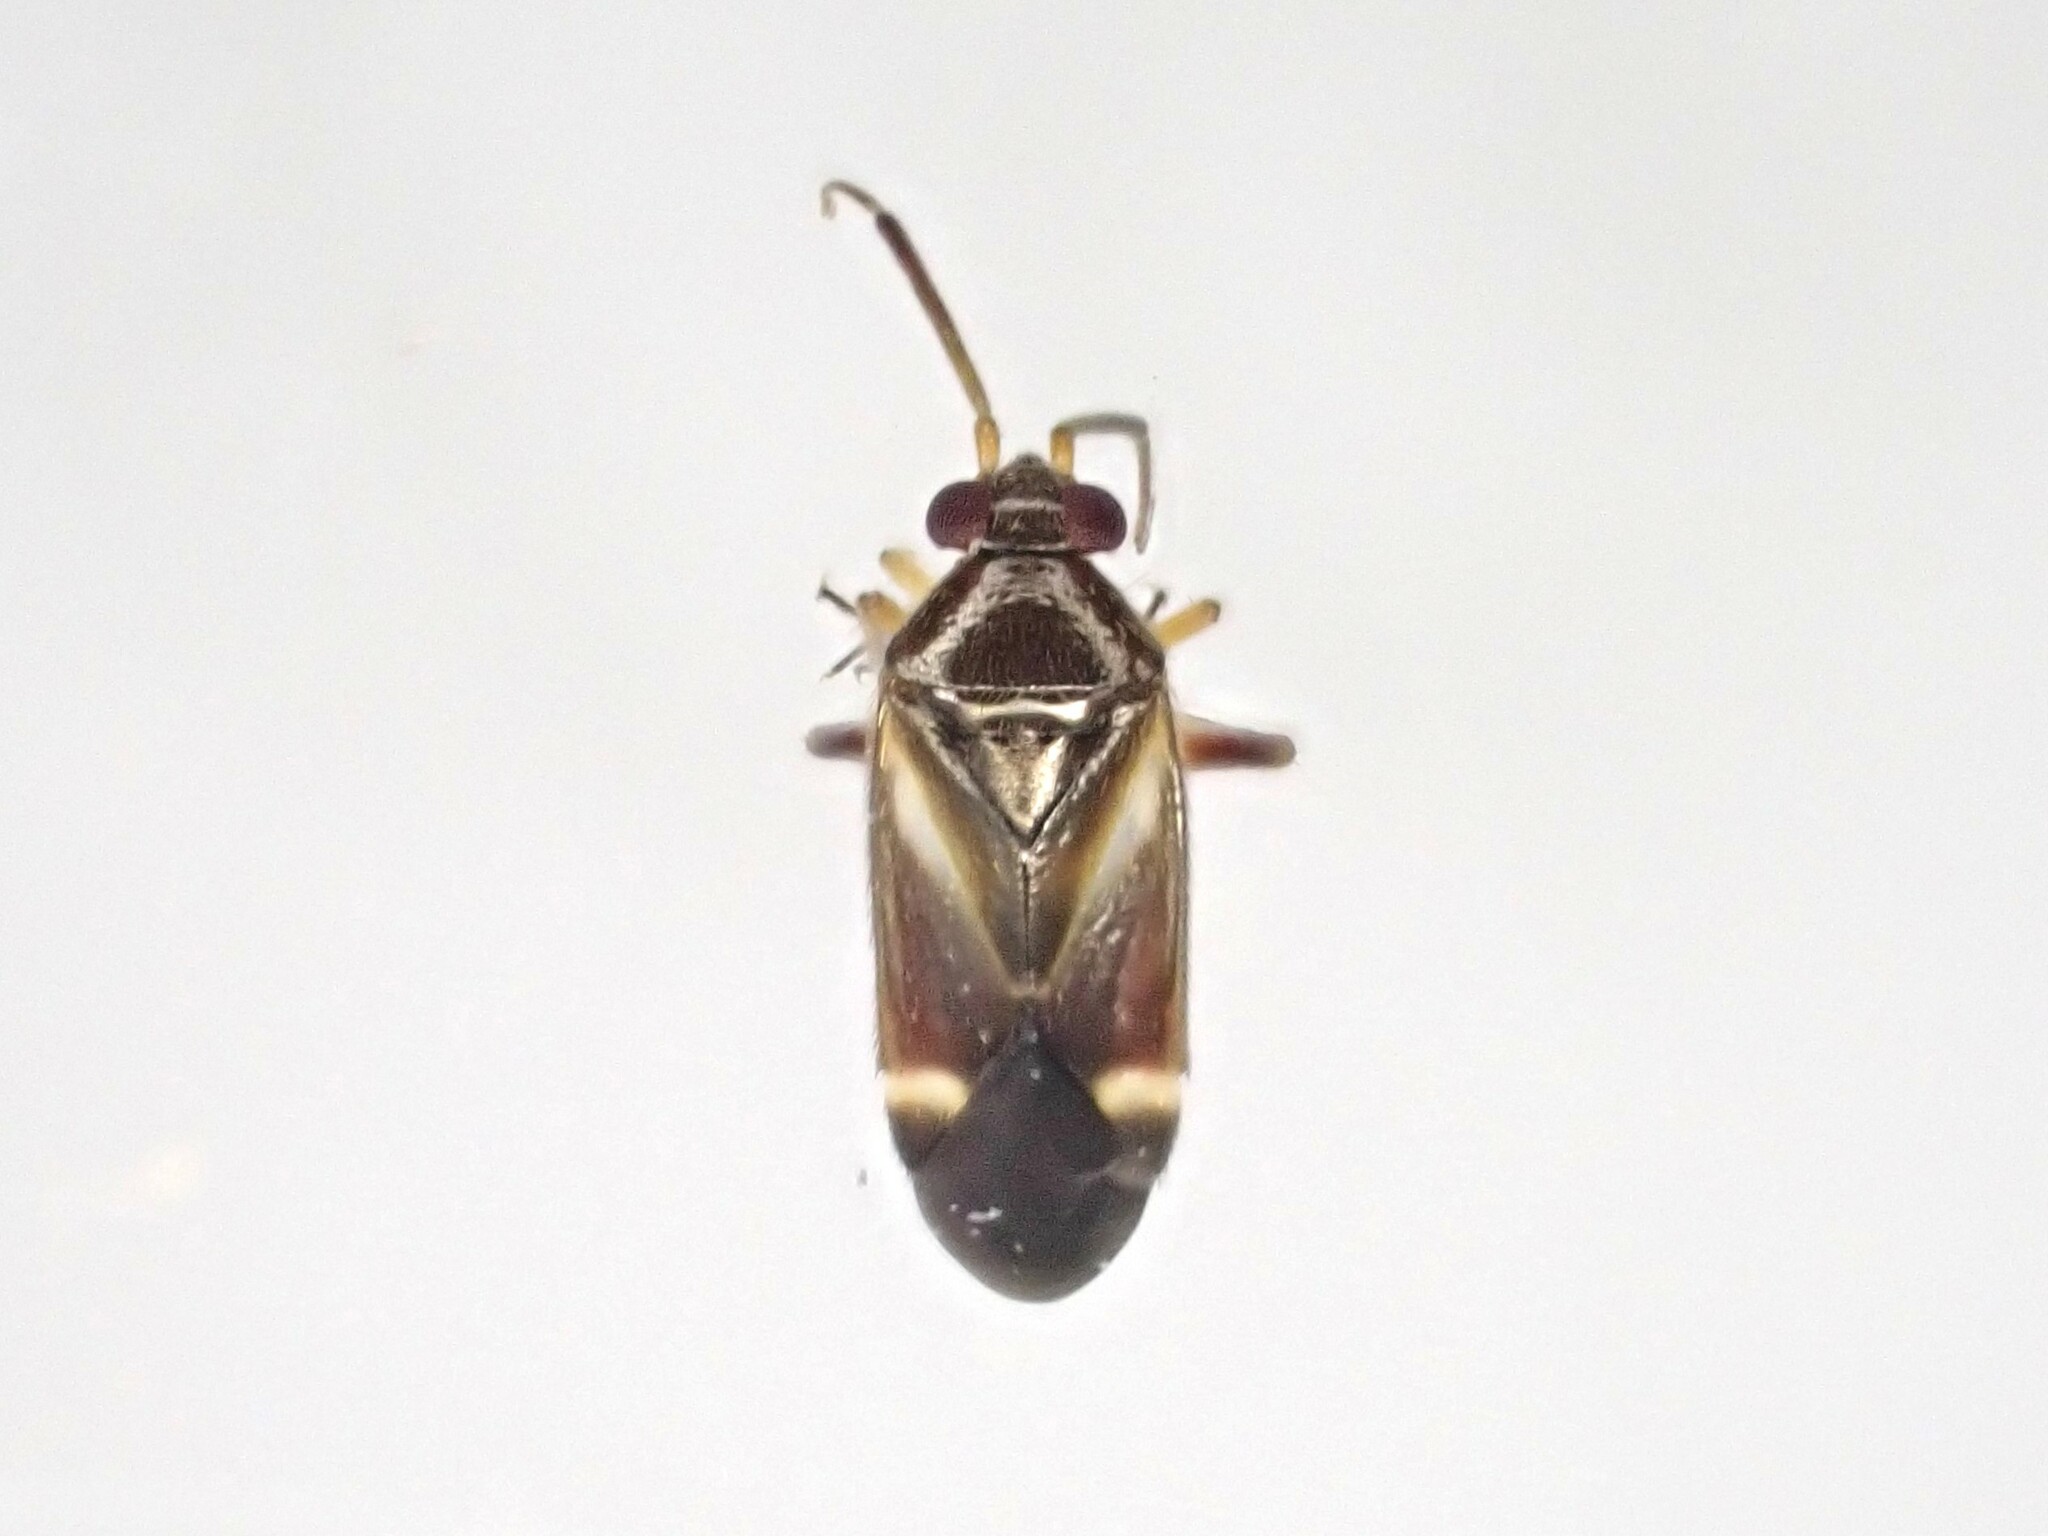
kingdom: Animalia
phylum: Arthropoda
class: Insecta
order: Hemiptera
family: Miridae
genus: Ausejanus
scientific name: Ausejanus albisignatus
